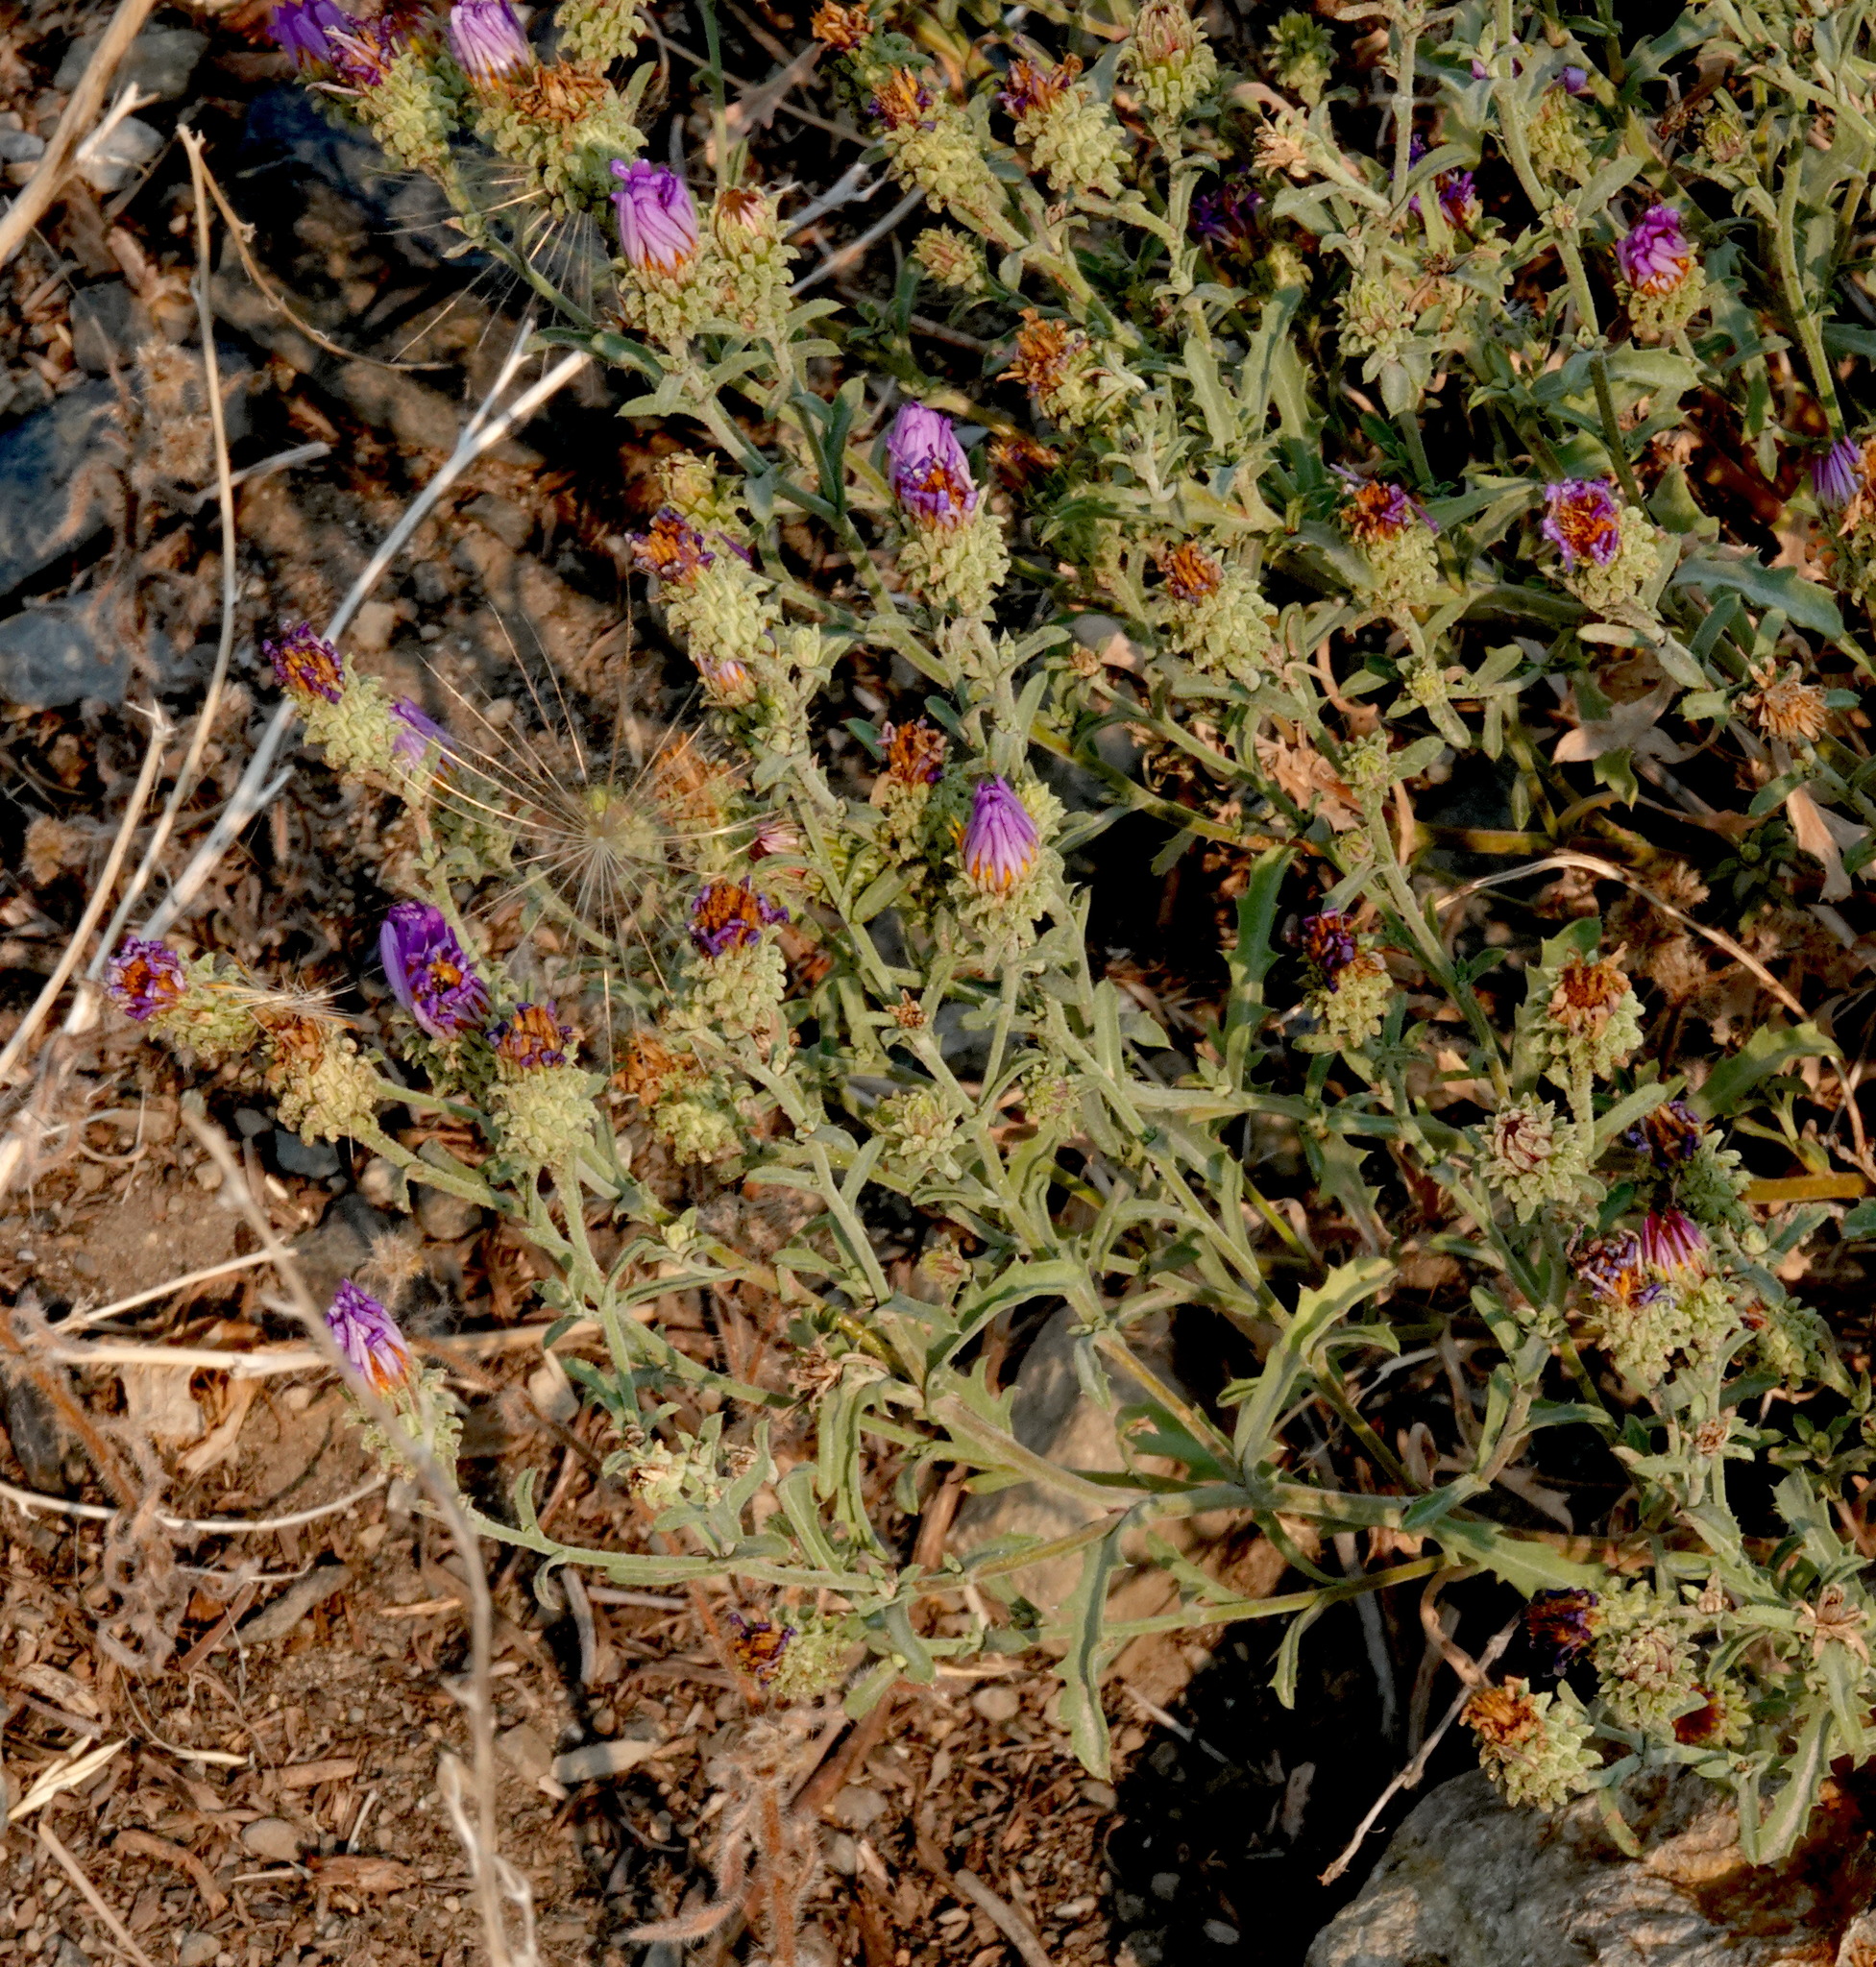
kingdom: Plantae
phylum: Tracheophyta
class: Magnoliopsida
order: Asterales
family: Asteraceae
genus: Dieteria
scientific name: Dieteria canescens
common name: Hoary-aster
